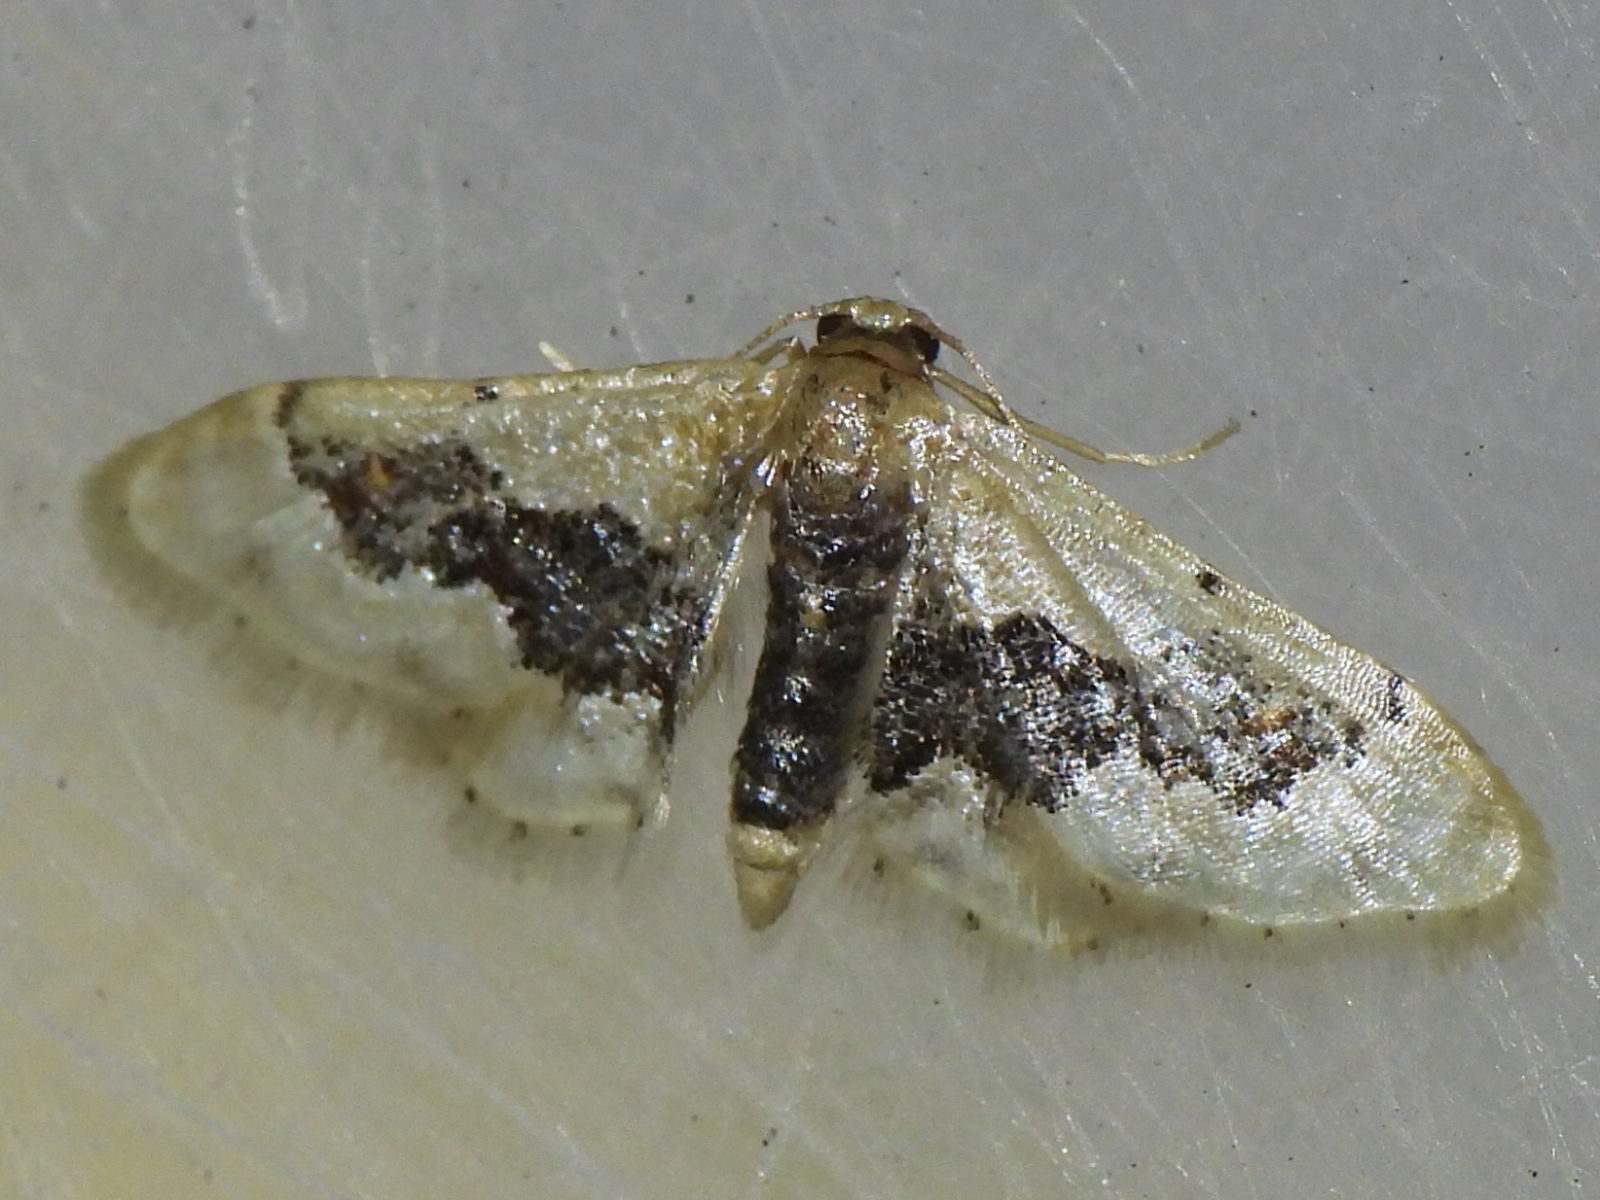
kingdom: Animalia
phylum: Arthropoda
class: Insecta
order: Lepidoptera
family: Geometridae
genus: Idaea
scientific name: Idaea gemmata
